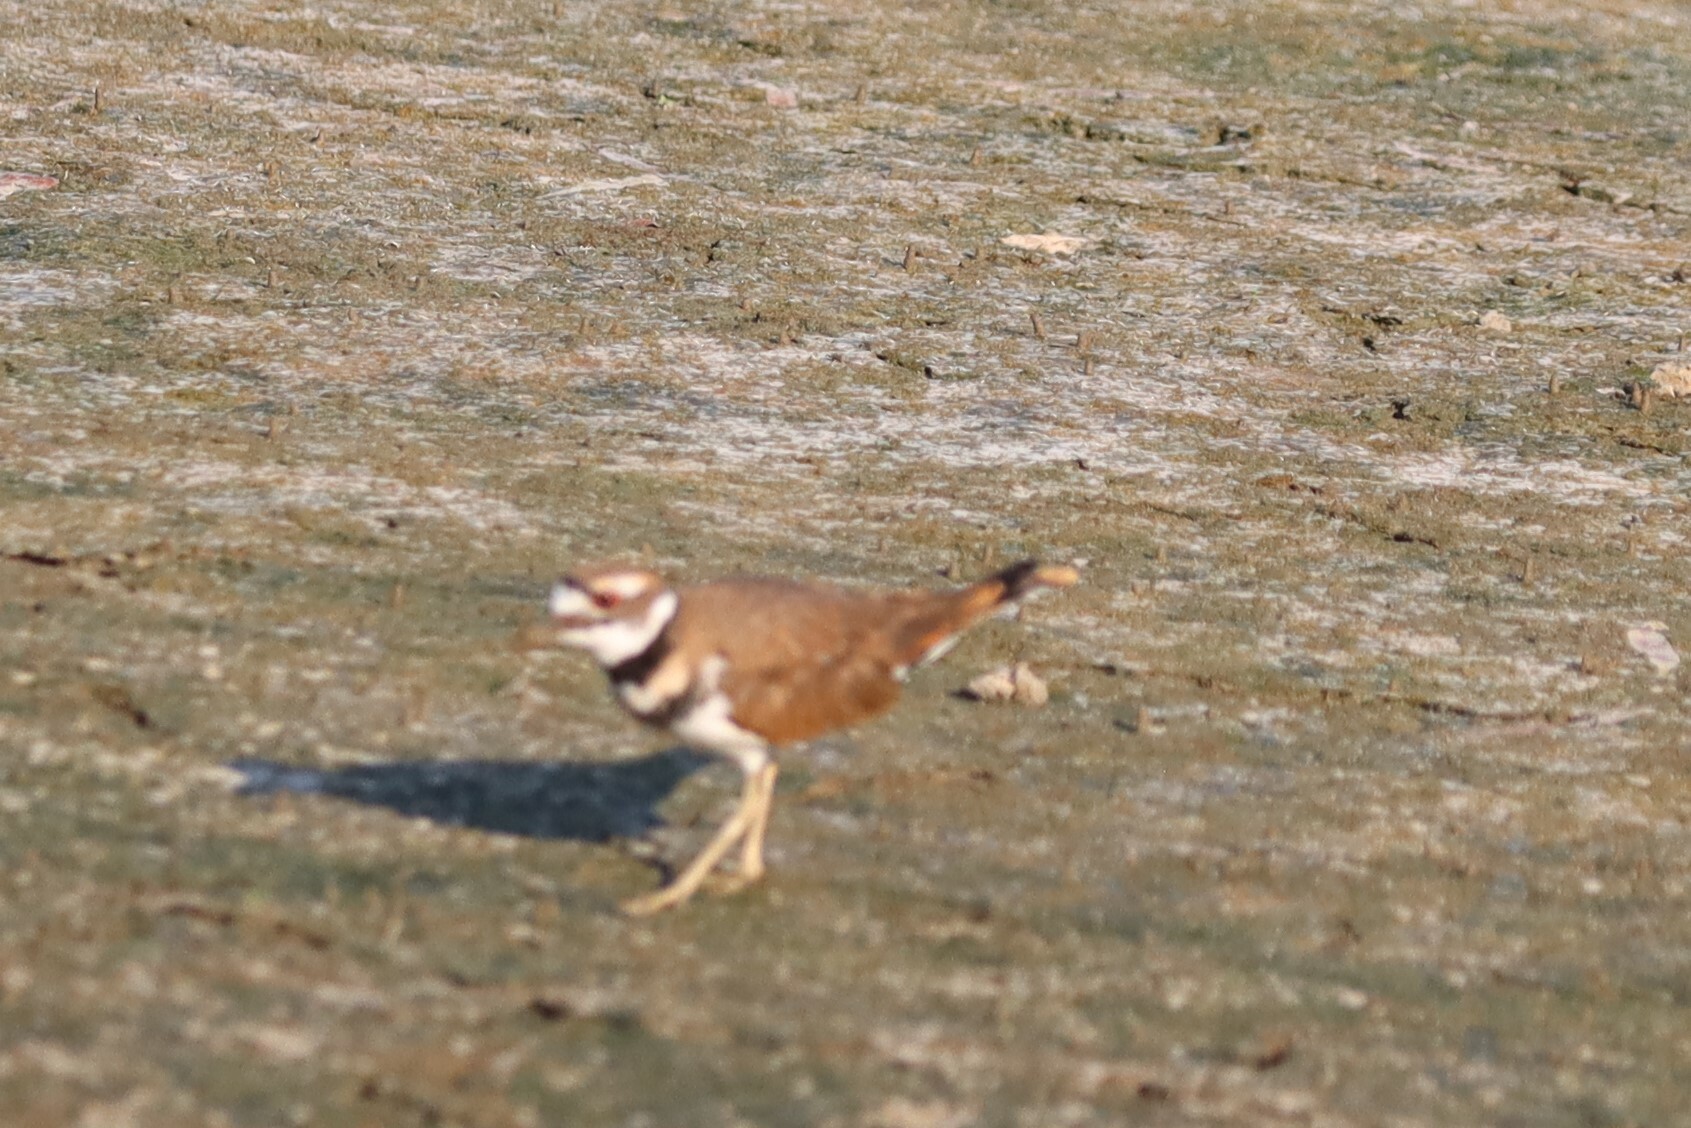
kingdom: Animalia
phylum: Chordata
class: Aves
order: Charadriiformes
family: Charadriidae
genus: Charadrius
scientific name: Charadrius vociferus
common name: Killdeer
